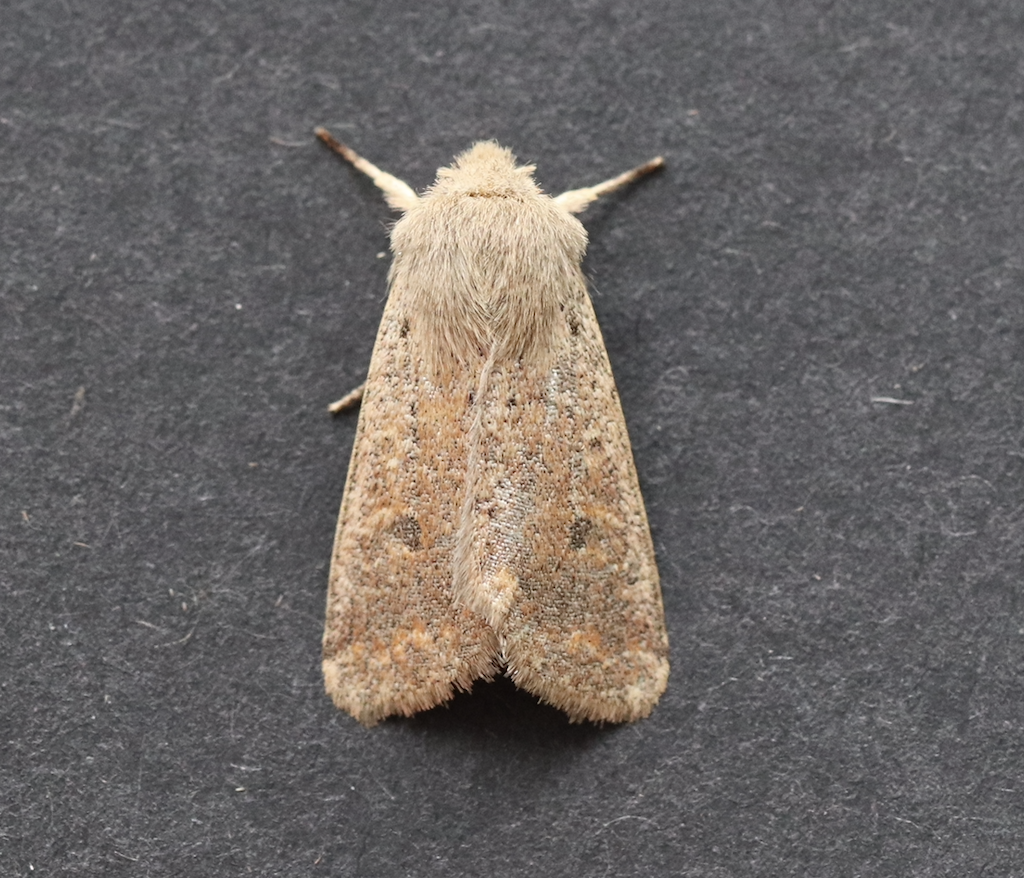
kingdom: Animalia
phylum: Arthropoda
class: Insecta
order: Lepidoptera
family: Noctuidae
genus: Orthosia
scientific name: Orthosia cruda
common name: Small quaker
